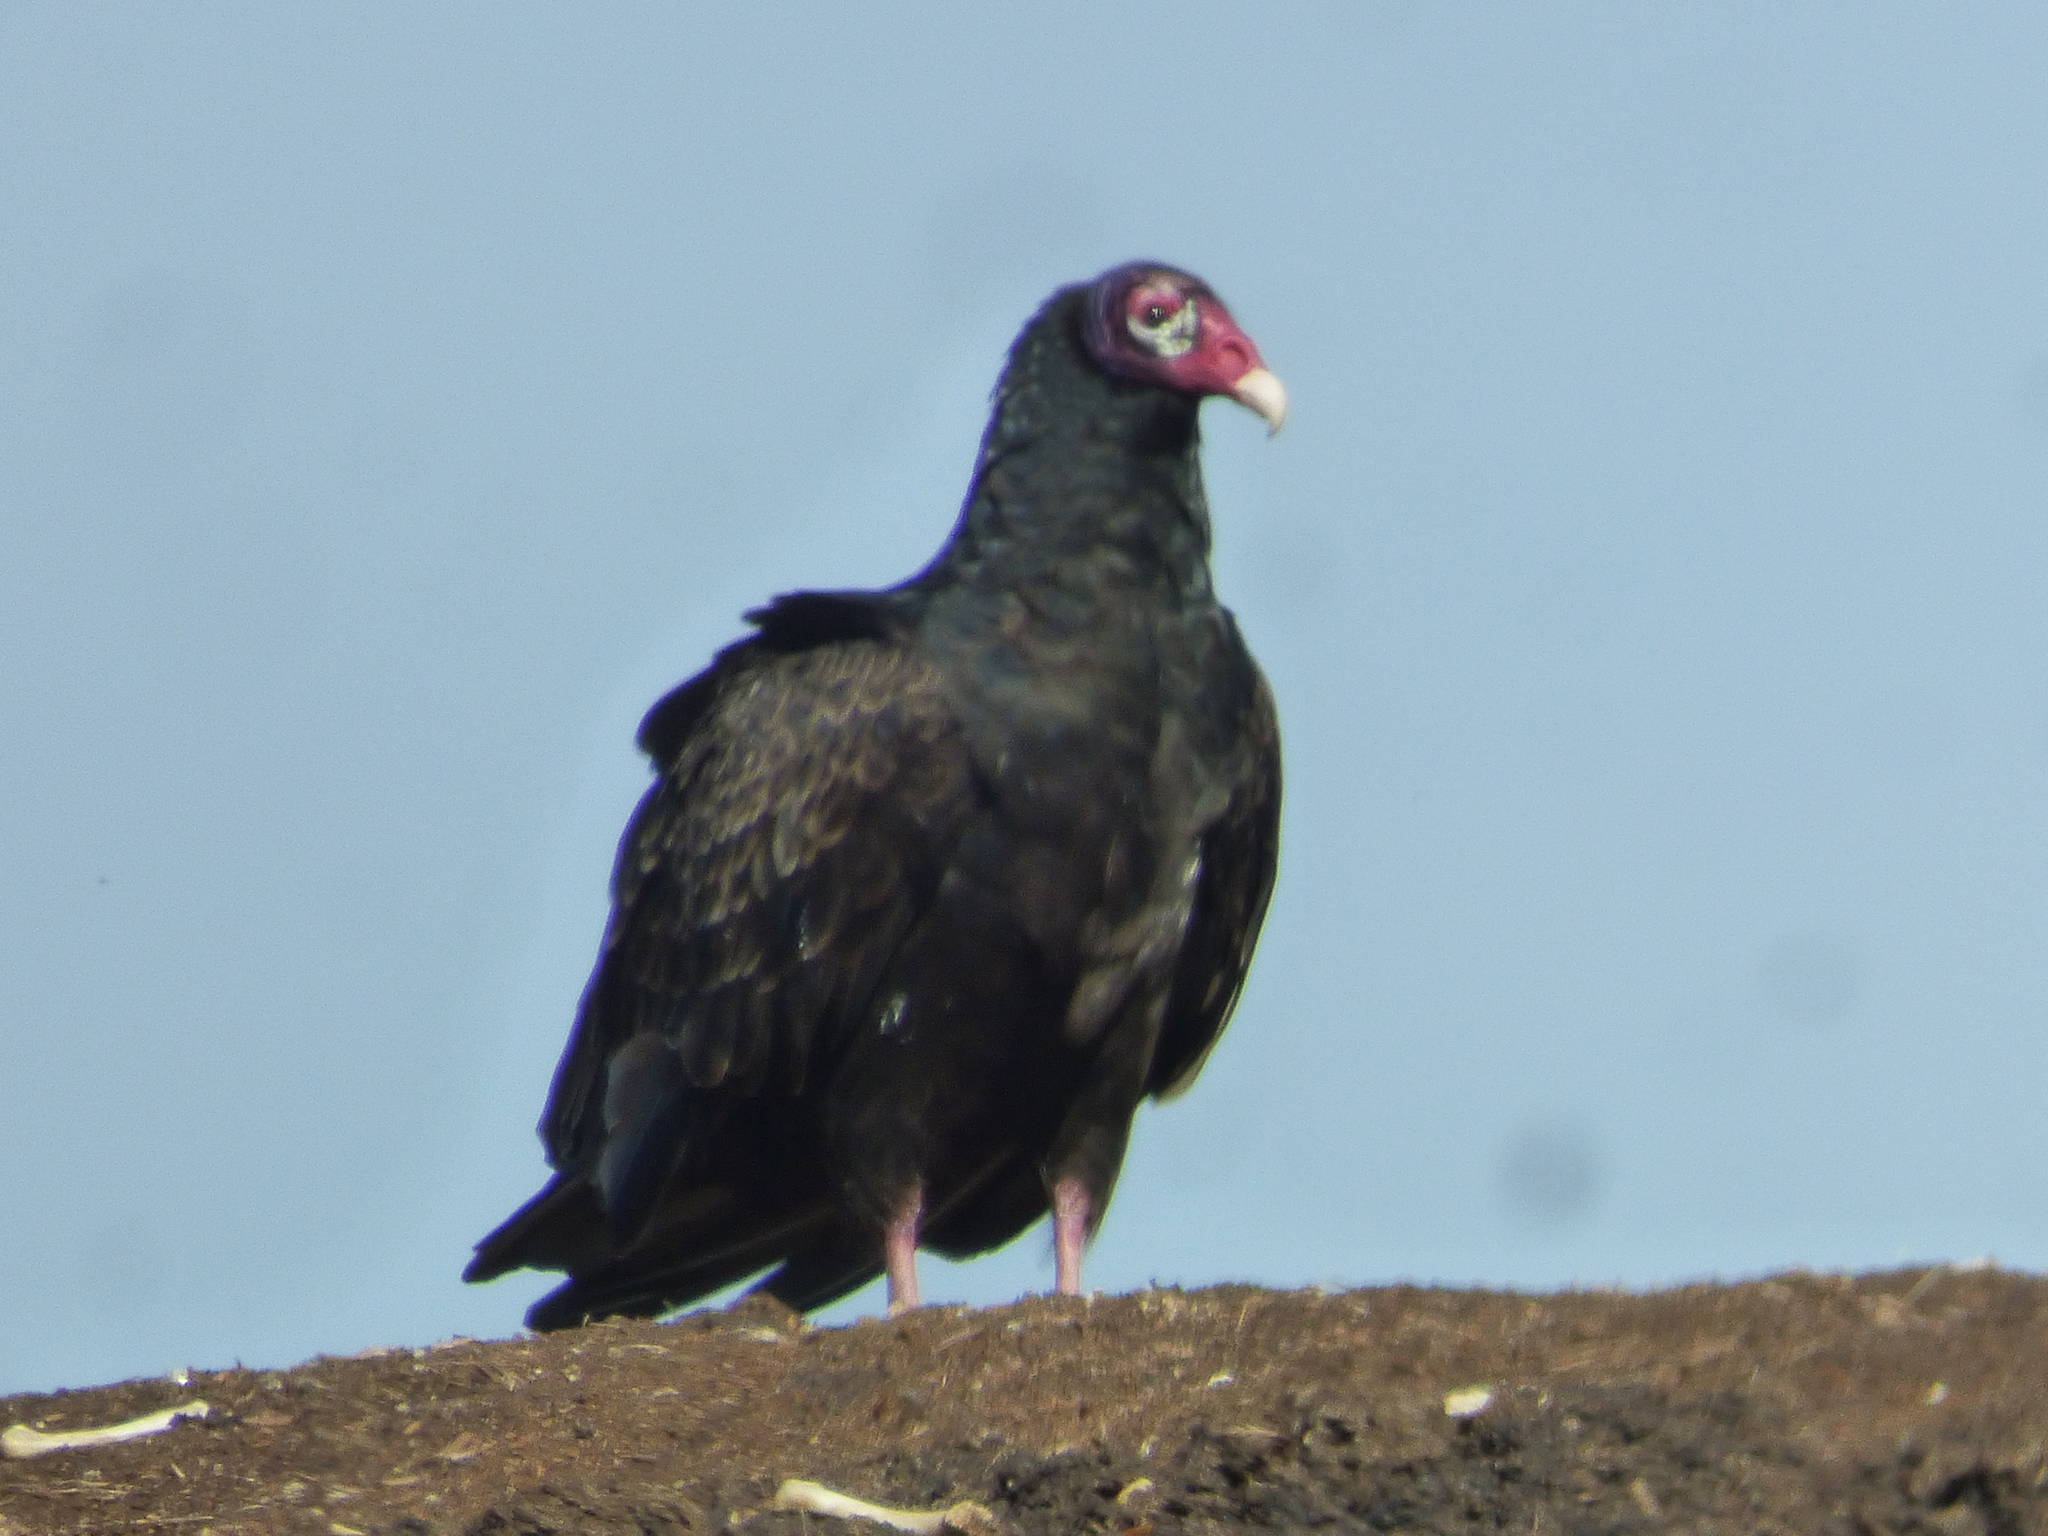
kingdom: Animalia
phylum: Chordata
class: Aves
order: Accipitriformes
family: Cathartidae
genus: Cathartes
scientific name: Cathartes aura
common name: Turkey vulture
